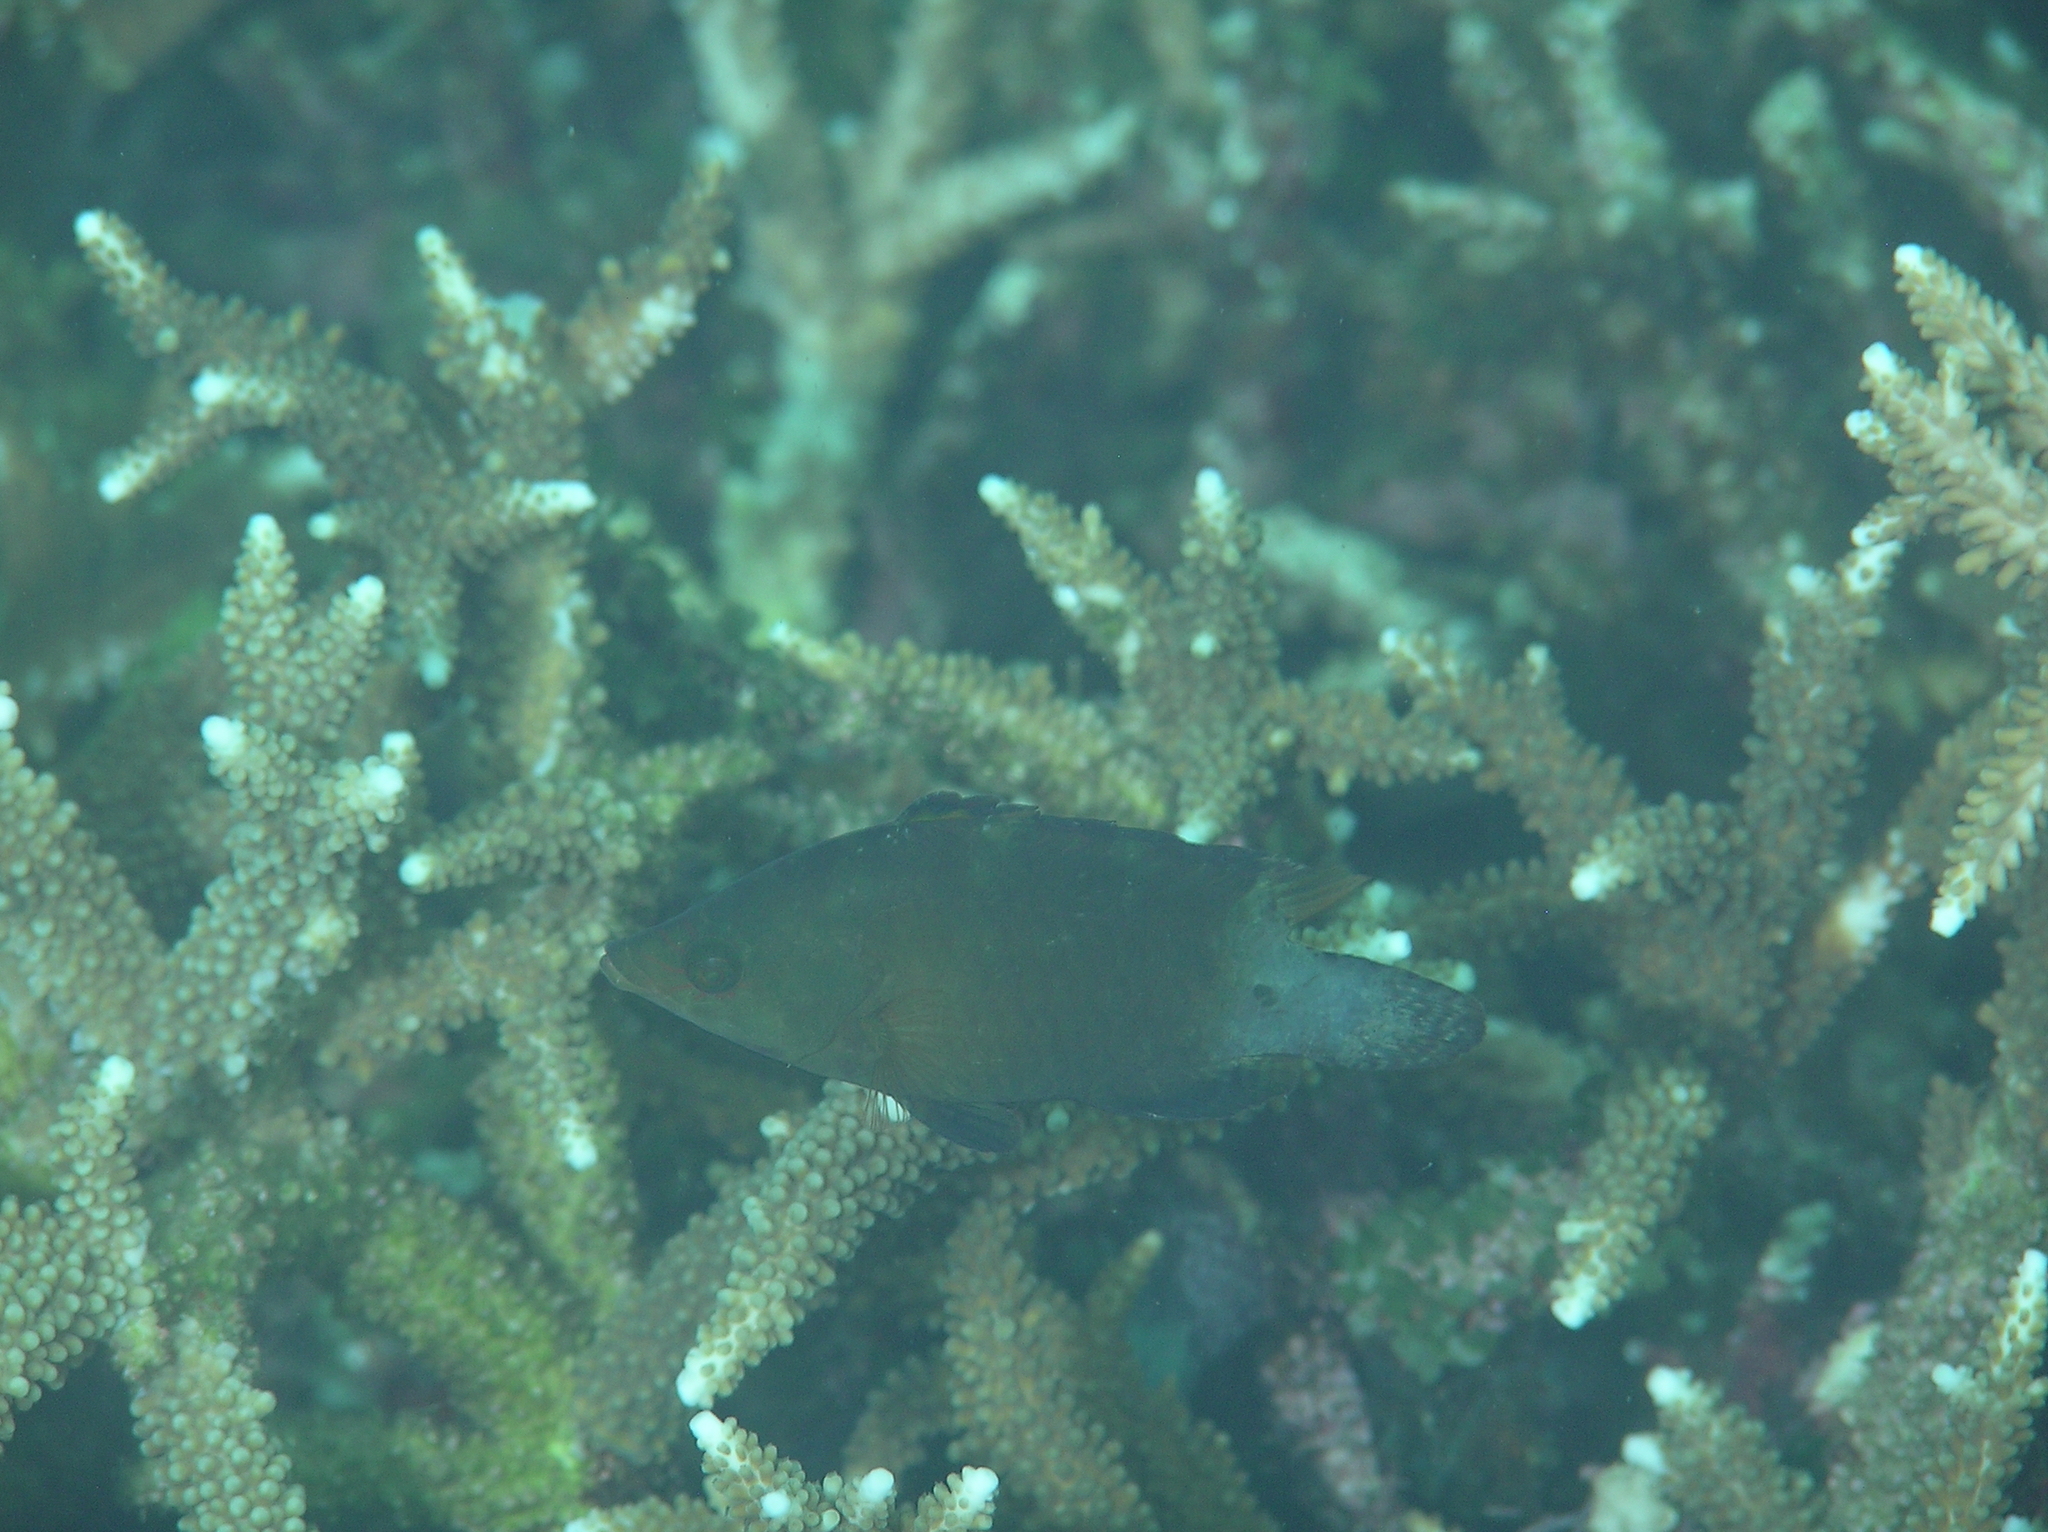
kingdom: Animalia
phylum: Chordata
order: Perciformes
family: Labridae
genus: Cheilinus
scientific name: Cheilinus oxycephalus
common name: Snooty wrasse
